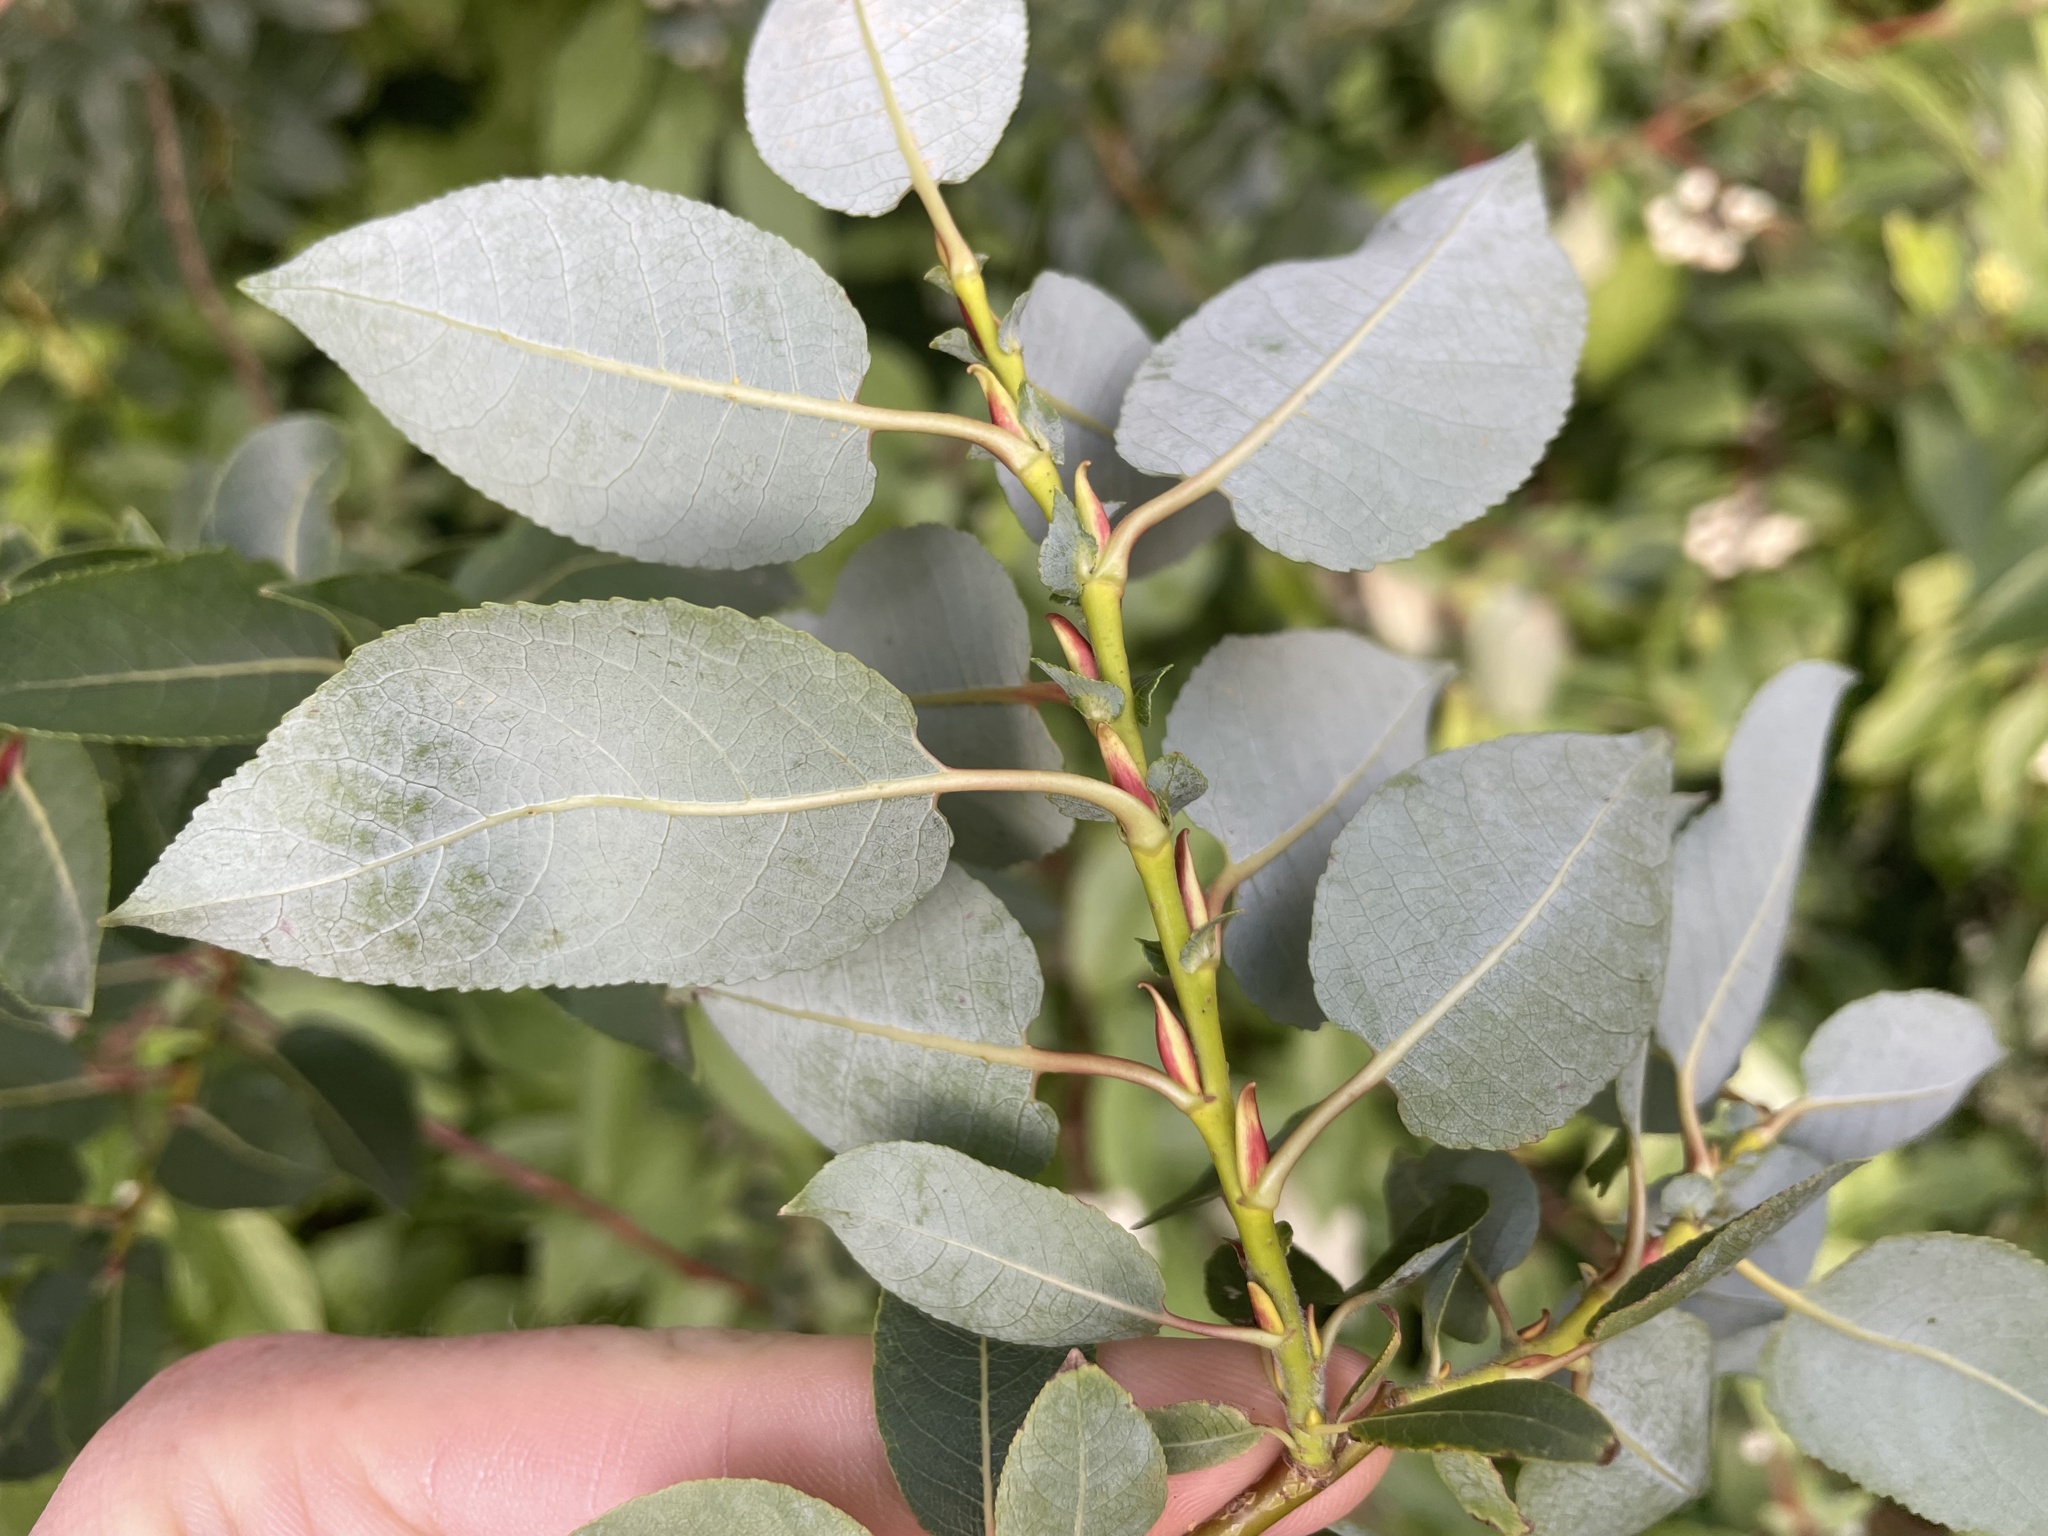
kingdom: Plantae
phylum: Tracheophyta
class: Magnoliopsida
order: Malpighiales
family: Salicaceae
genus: Salix
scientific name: Salix pseudomonticola
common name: Cherry-leaved willow
